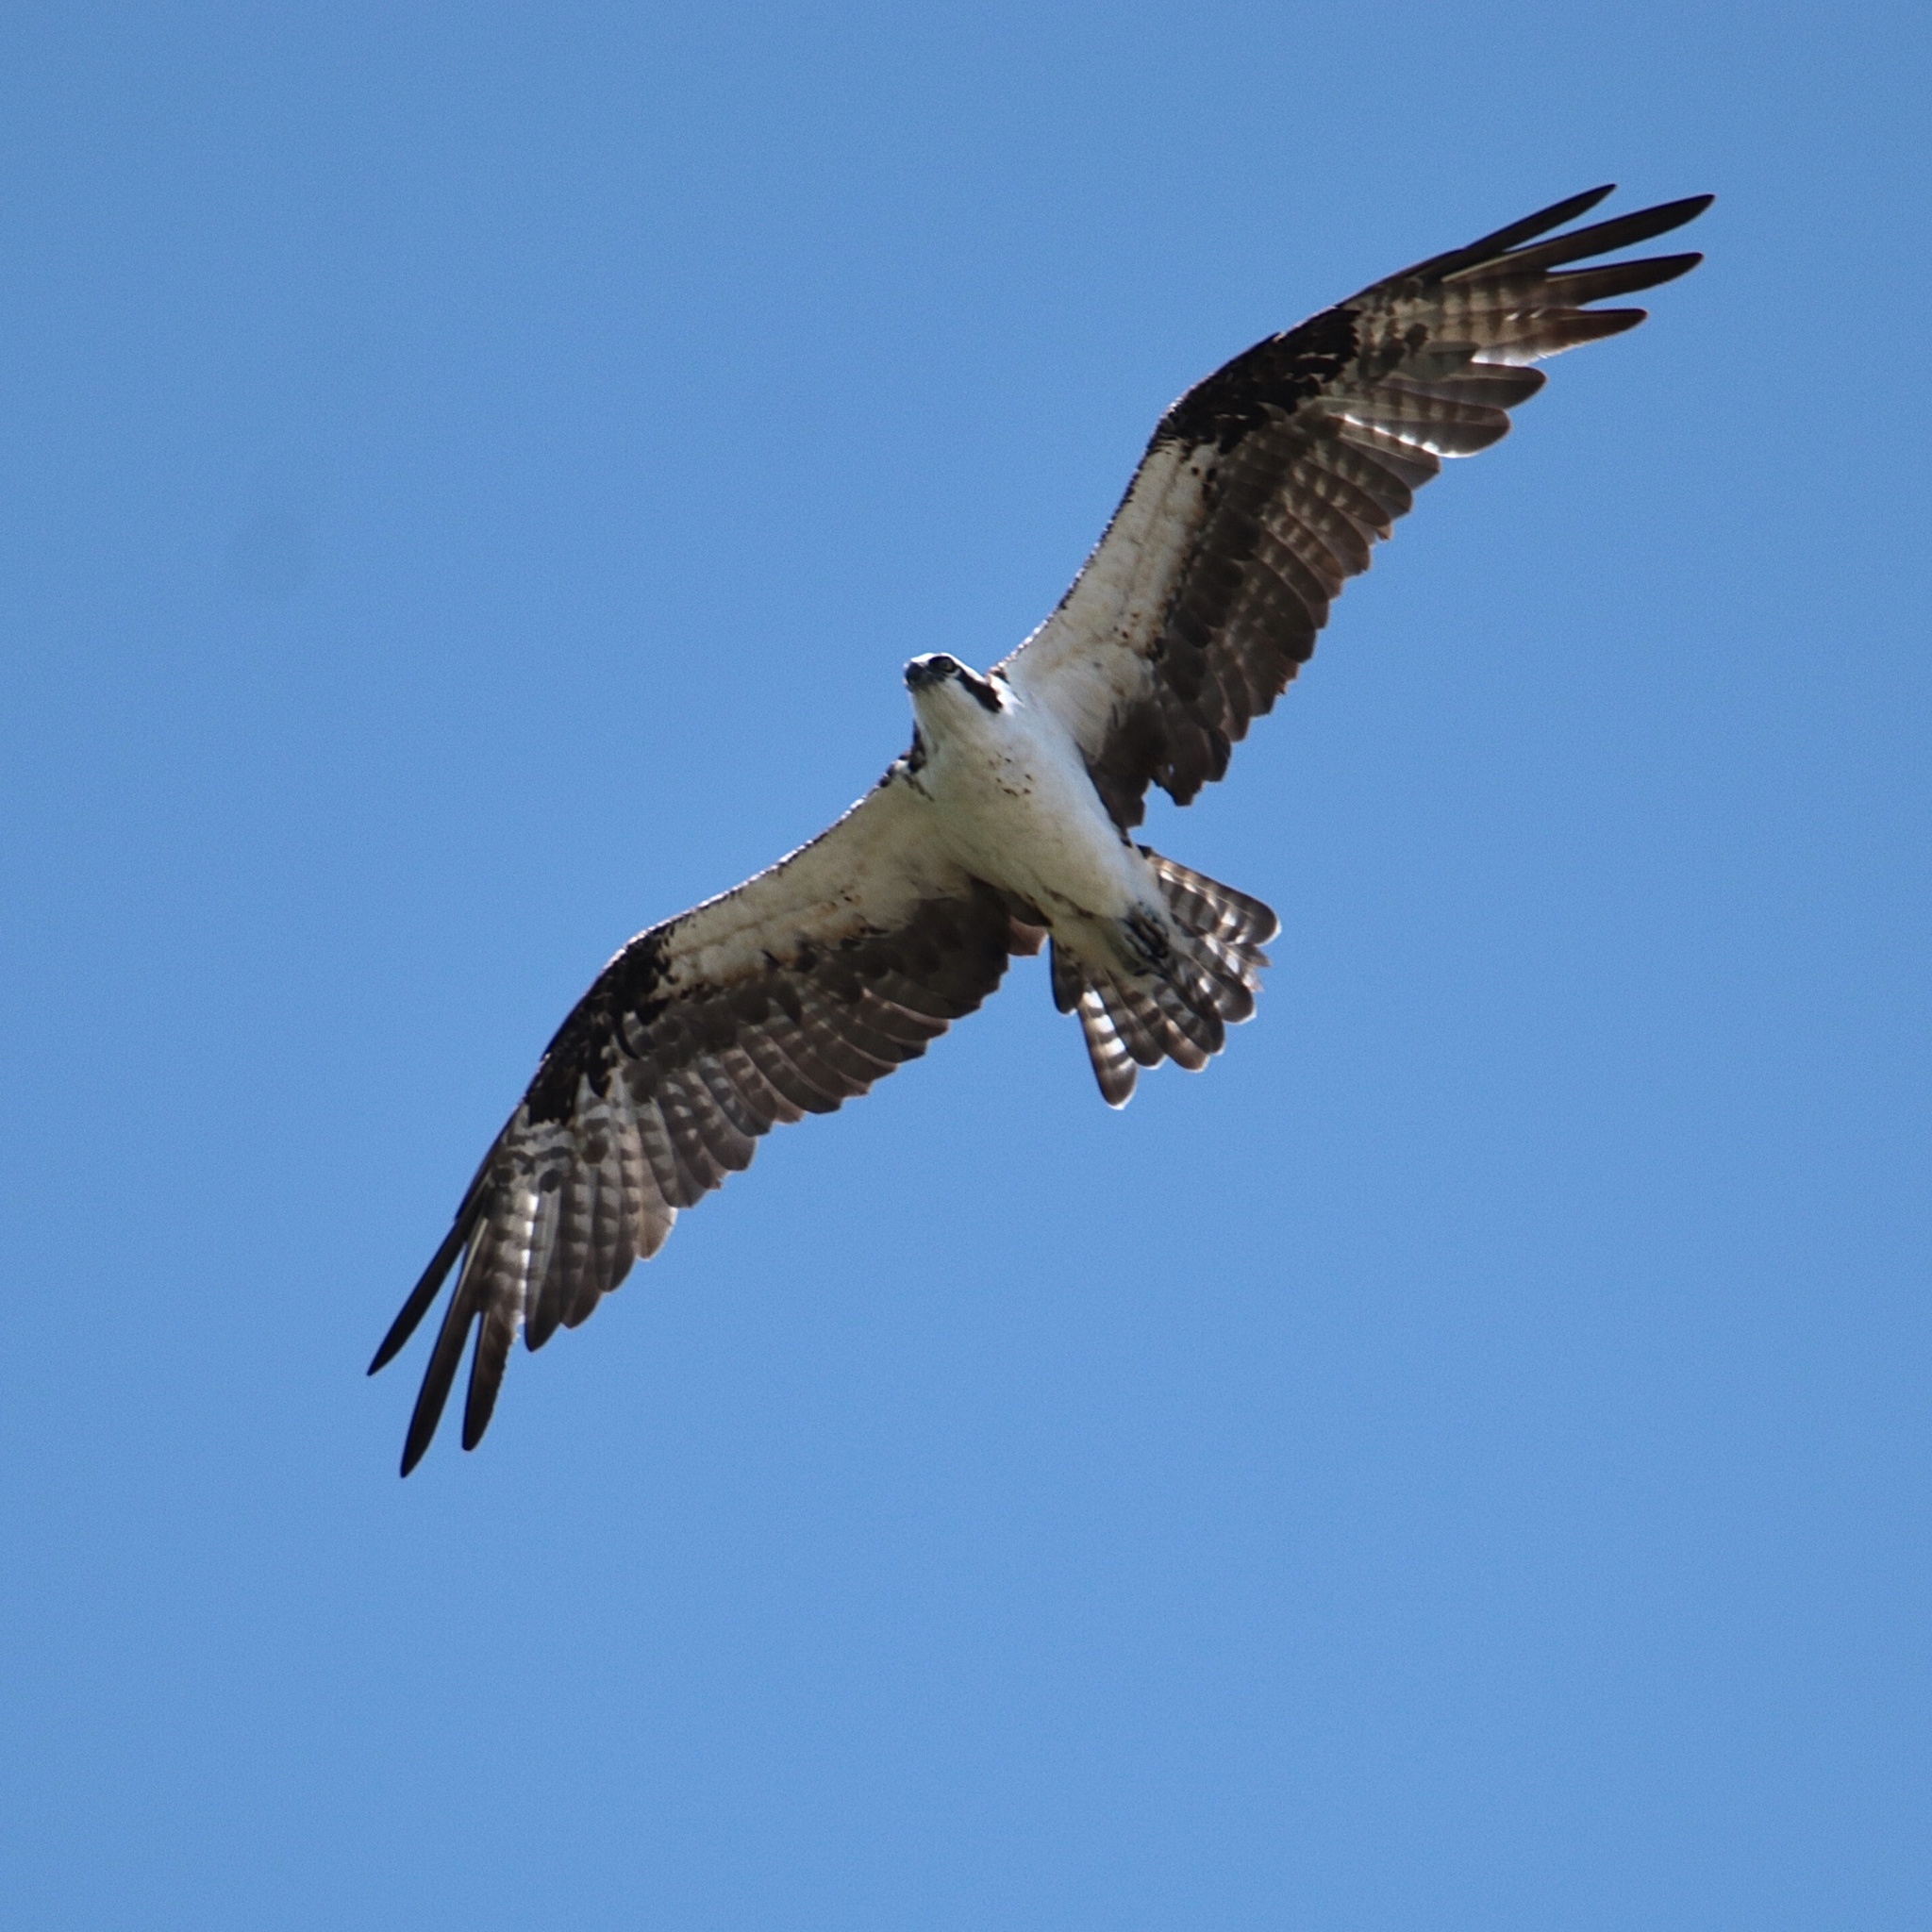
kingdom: Animalia
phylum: Chordata
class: Aves
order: Accipitriformes
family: Pandionidae
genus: Pandion
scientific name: Pandion haliaetus
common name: Osprey
